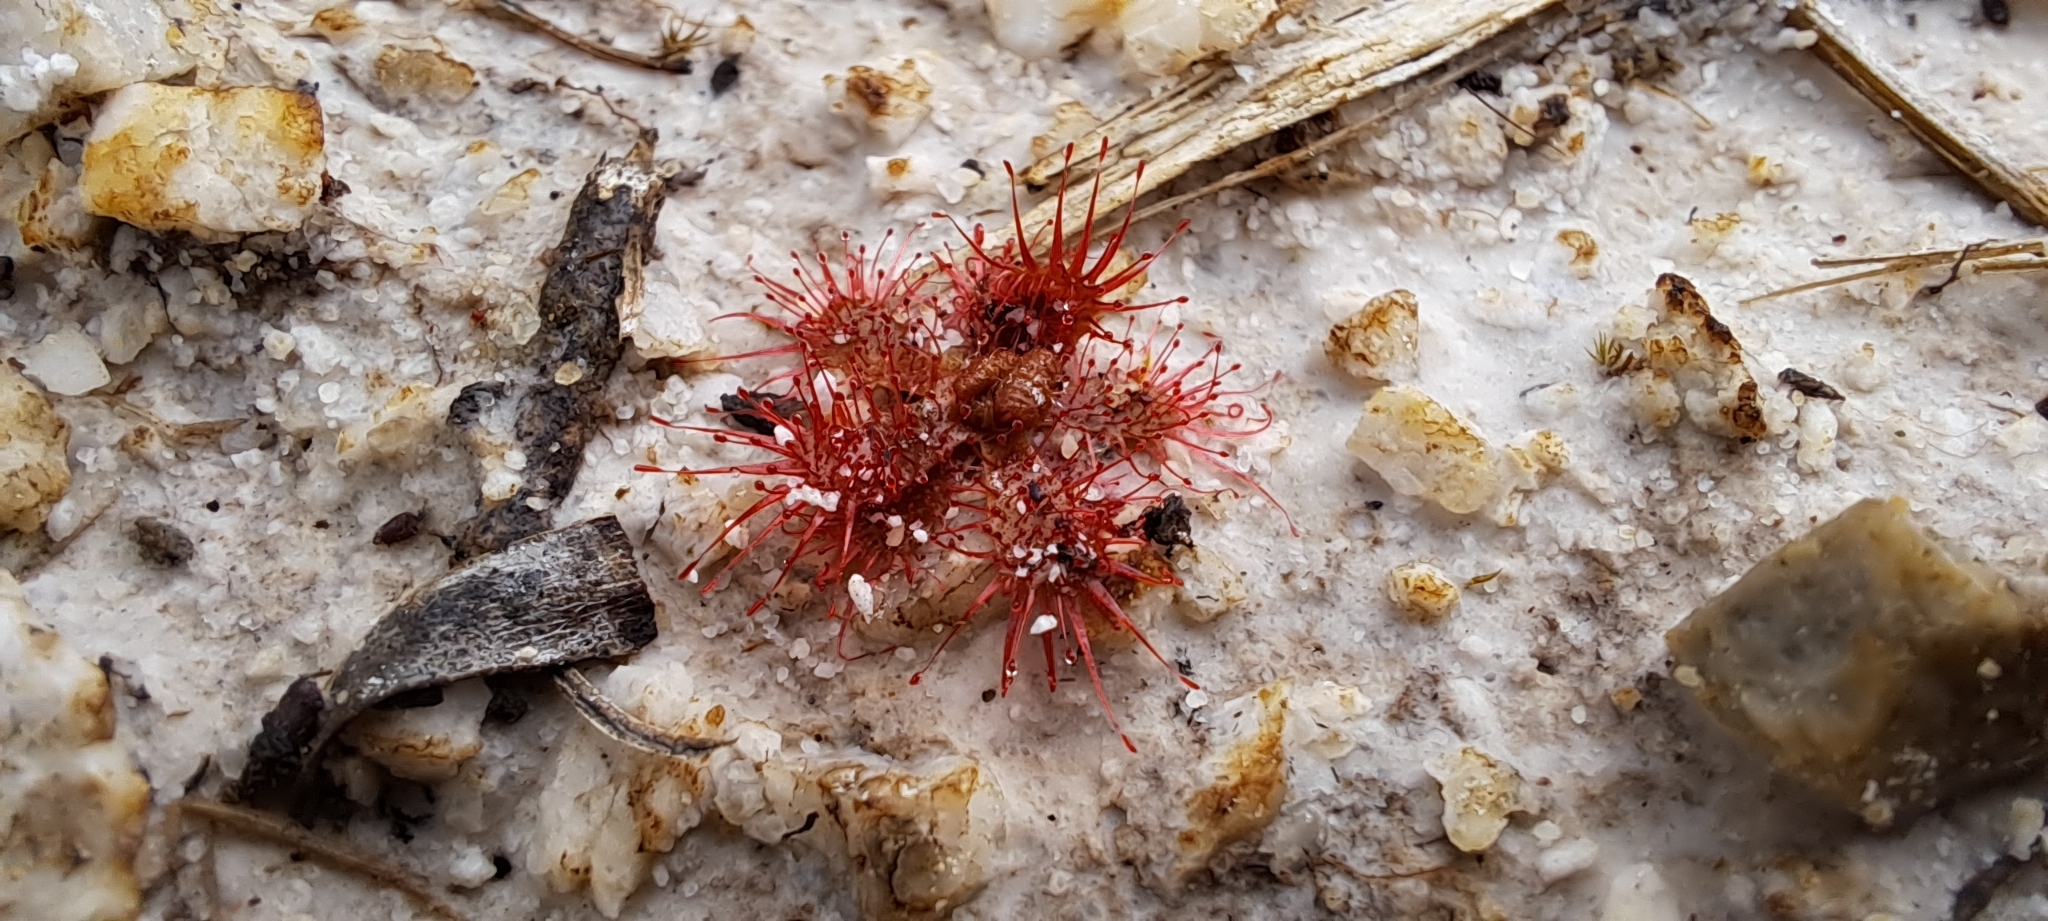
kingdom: Plantae
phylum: Tracheophyta
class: Magnoliopsida
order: Caryophyllales
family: Droseraceae
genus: Drosera
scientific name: Drosera trinervia
